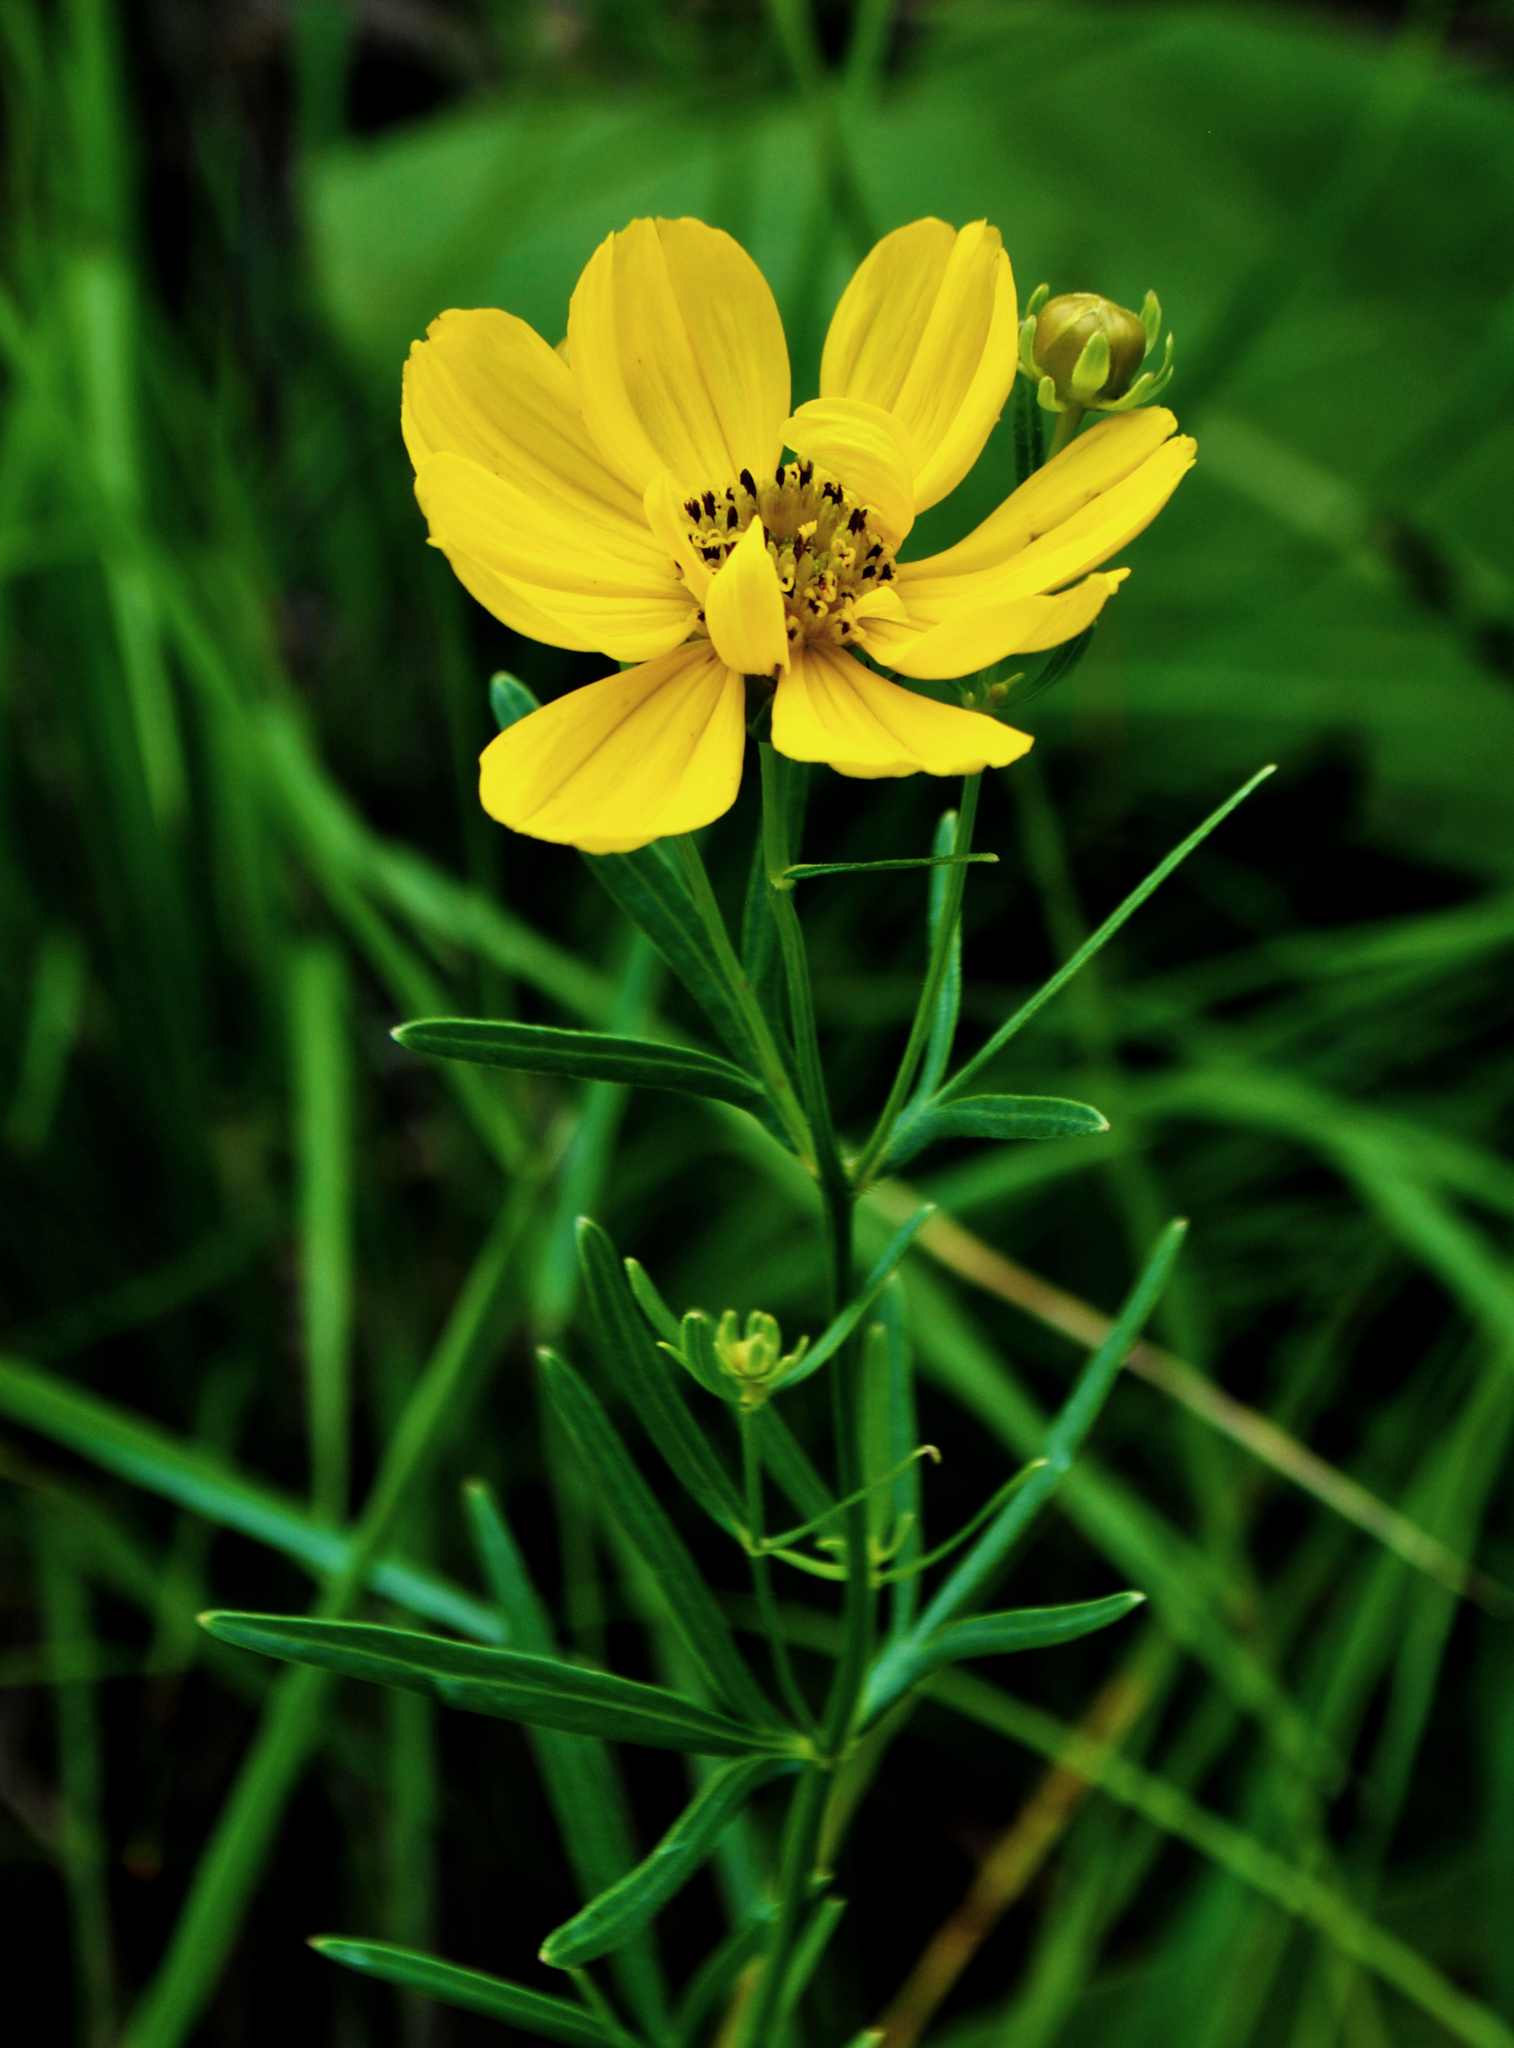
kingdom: Plantae
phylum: Tracheophyta
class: Magnoliopsida
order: Asterales
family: Asteraceae
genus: Coreopsis
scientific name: Coreopsis palmata
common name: Prairie coreopsis
